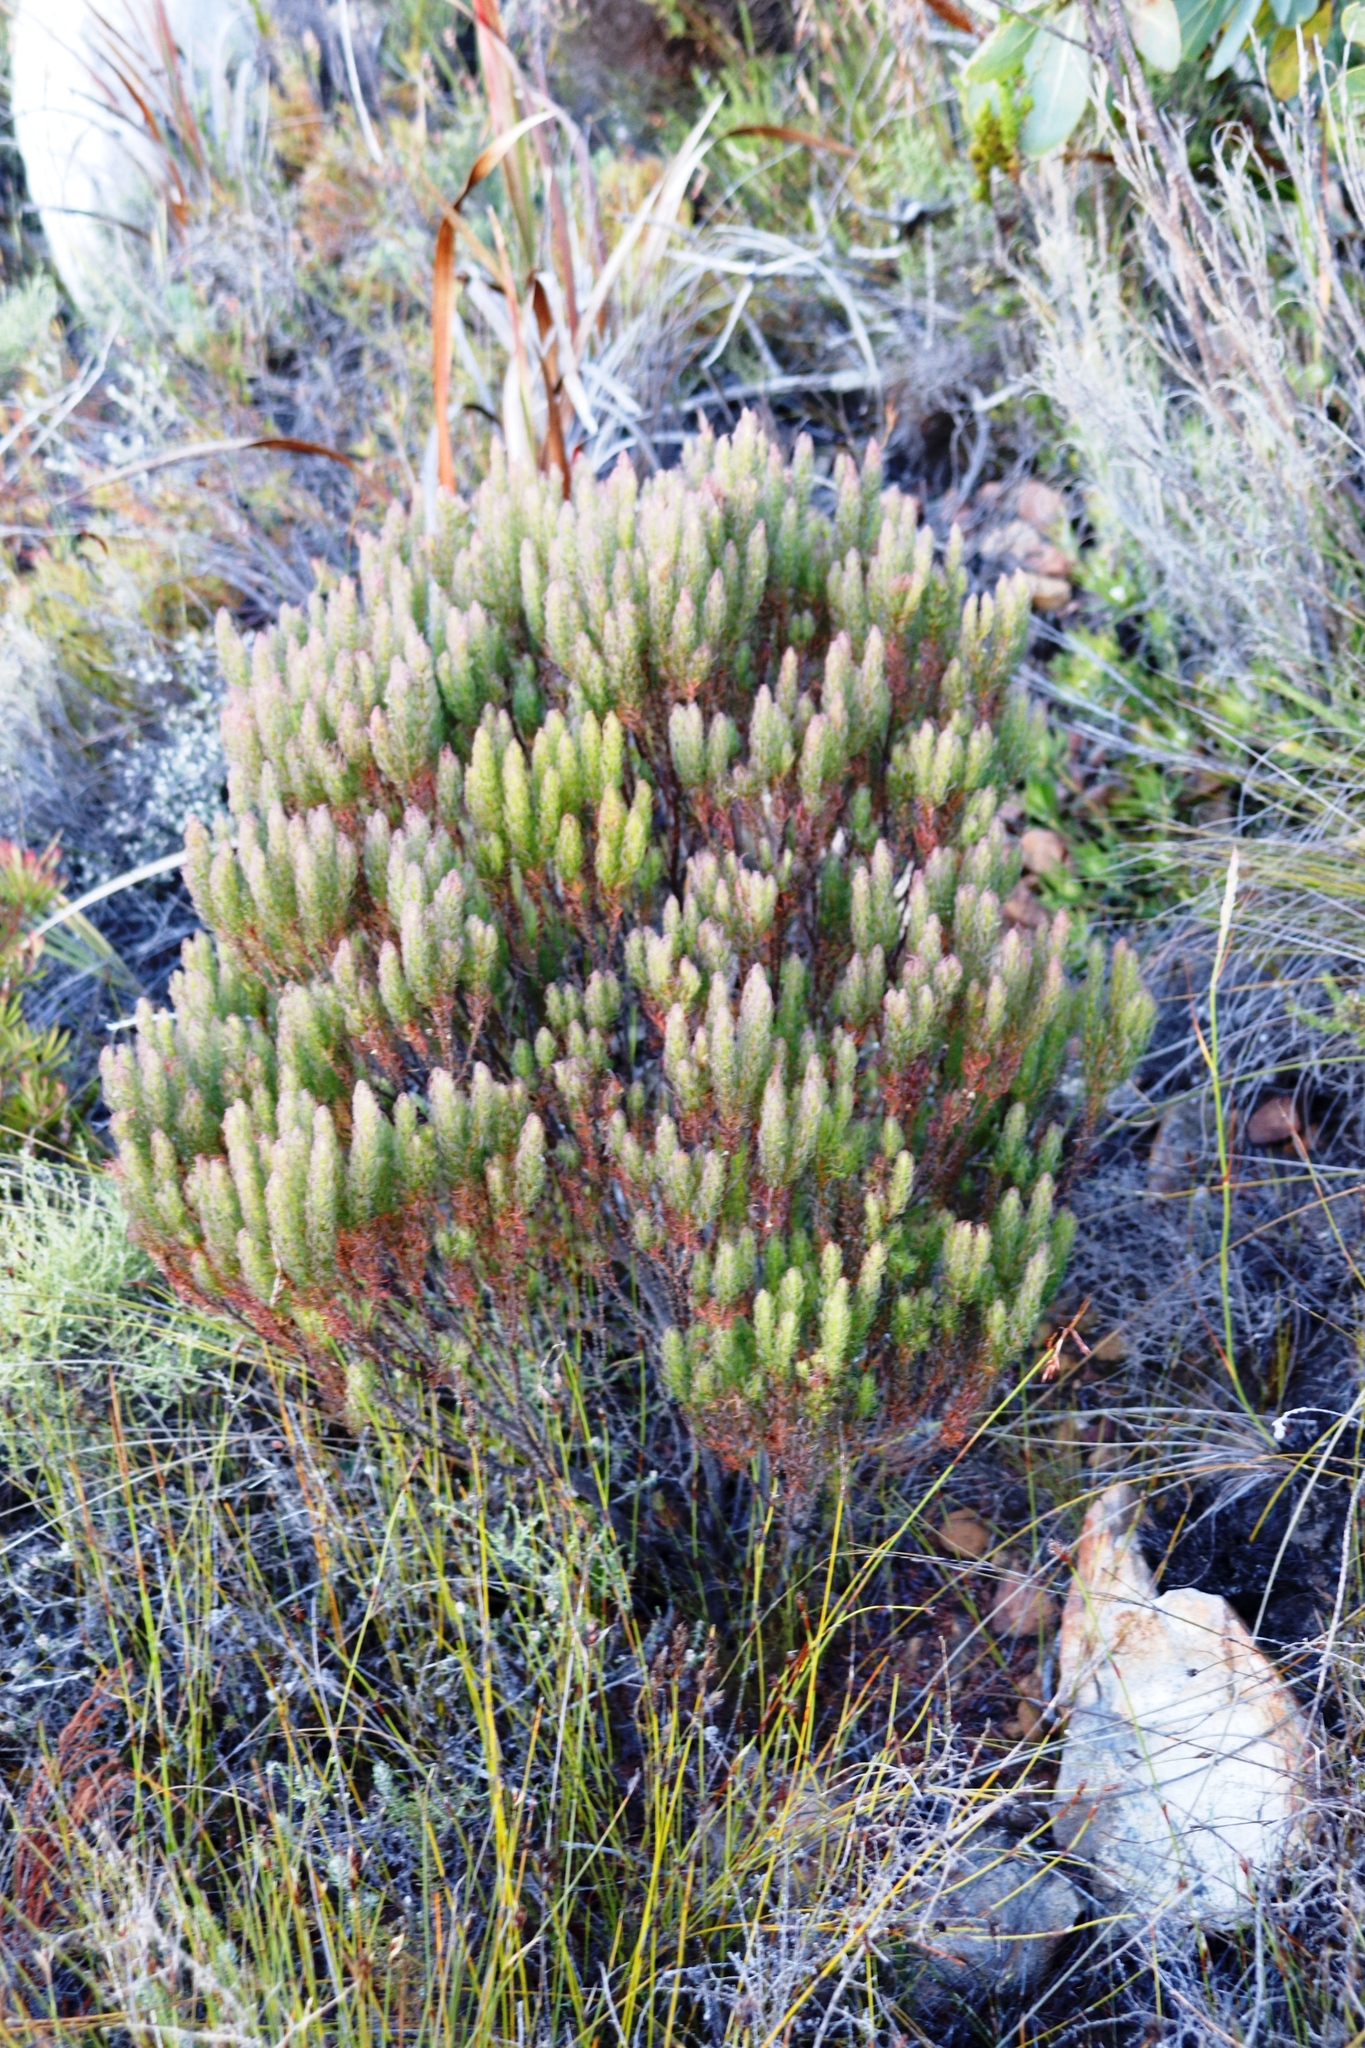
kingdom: Plantae
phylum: Tracheophyta
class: Magnoliopsida
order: Ericales
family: Ericaceae
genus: Erica
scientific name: Erica plukenetii
